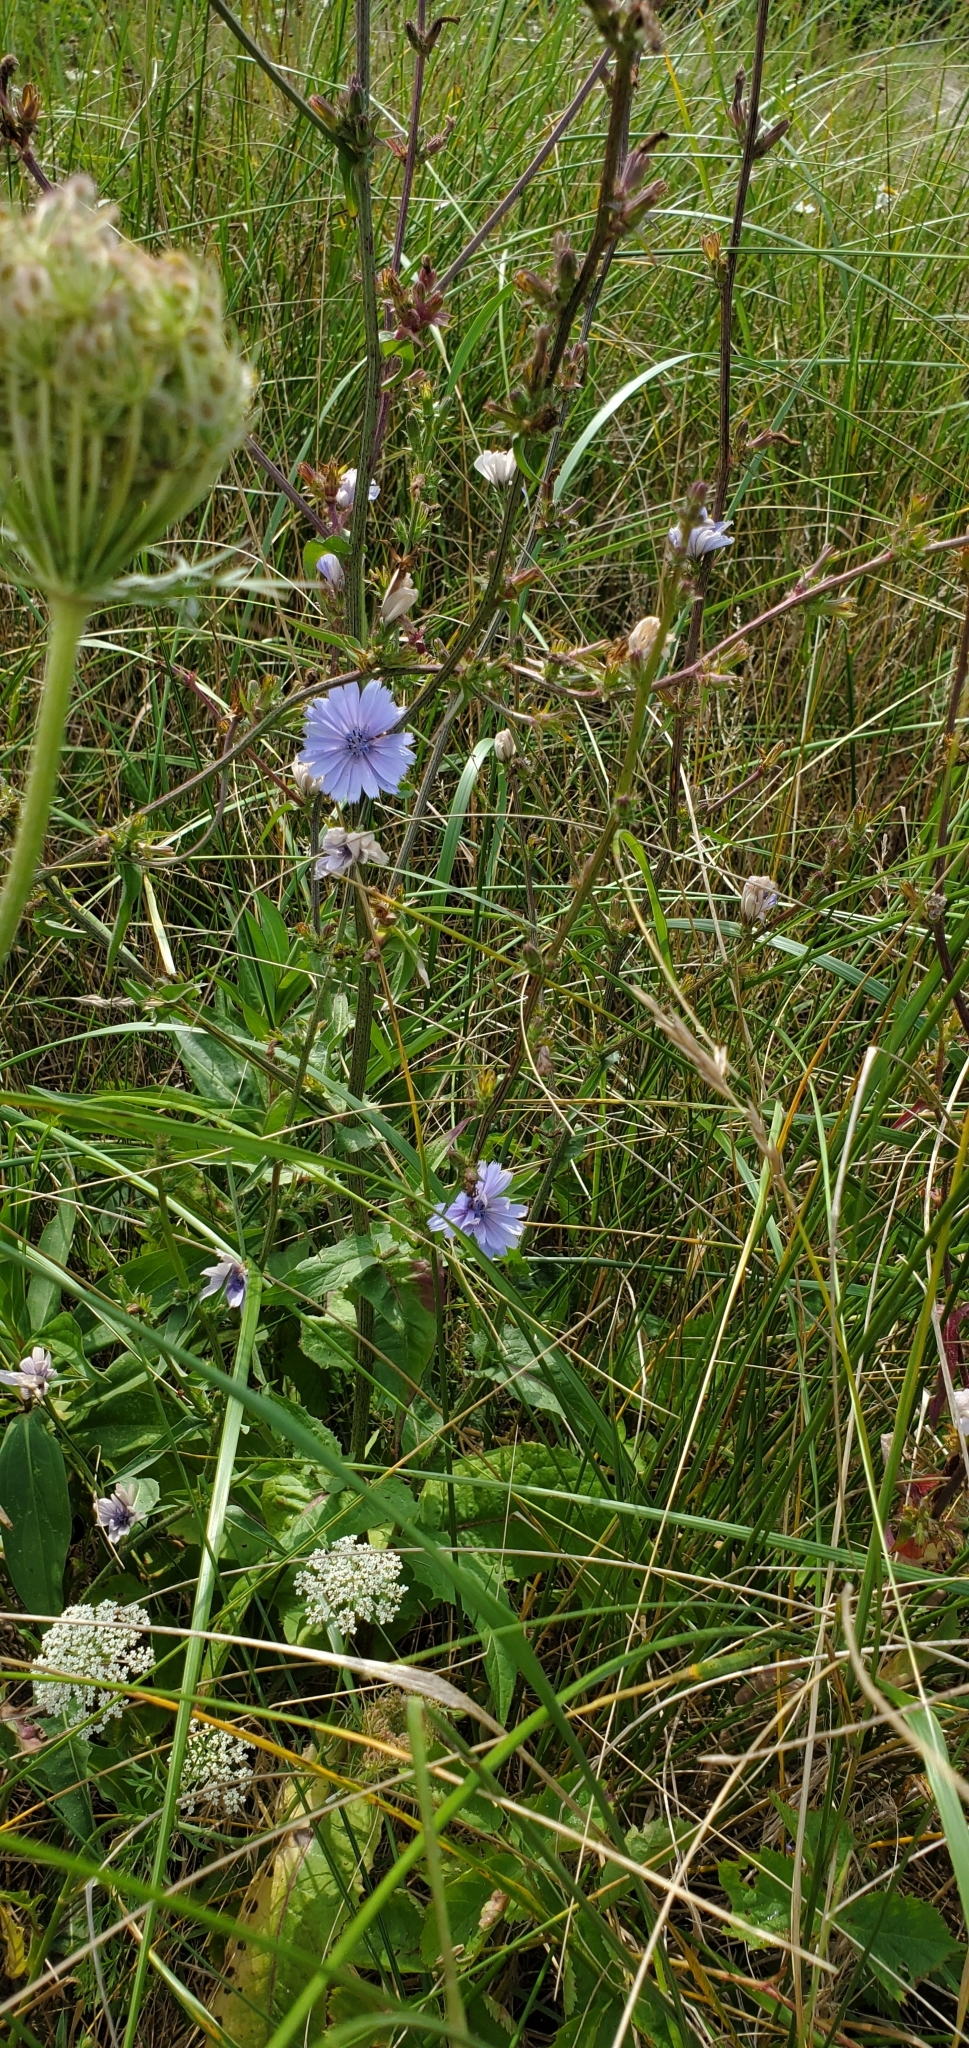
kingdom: Plantae
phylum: Tracheophyta
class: Magnoliopsida
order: Asterales
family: Asteraceae
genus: Cichorium
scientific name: Cichorium intybus
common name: Chicory
